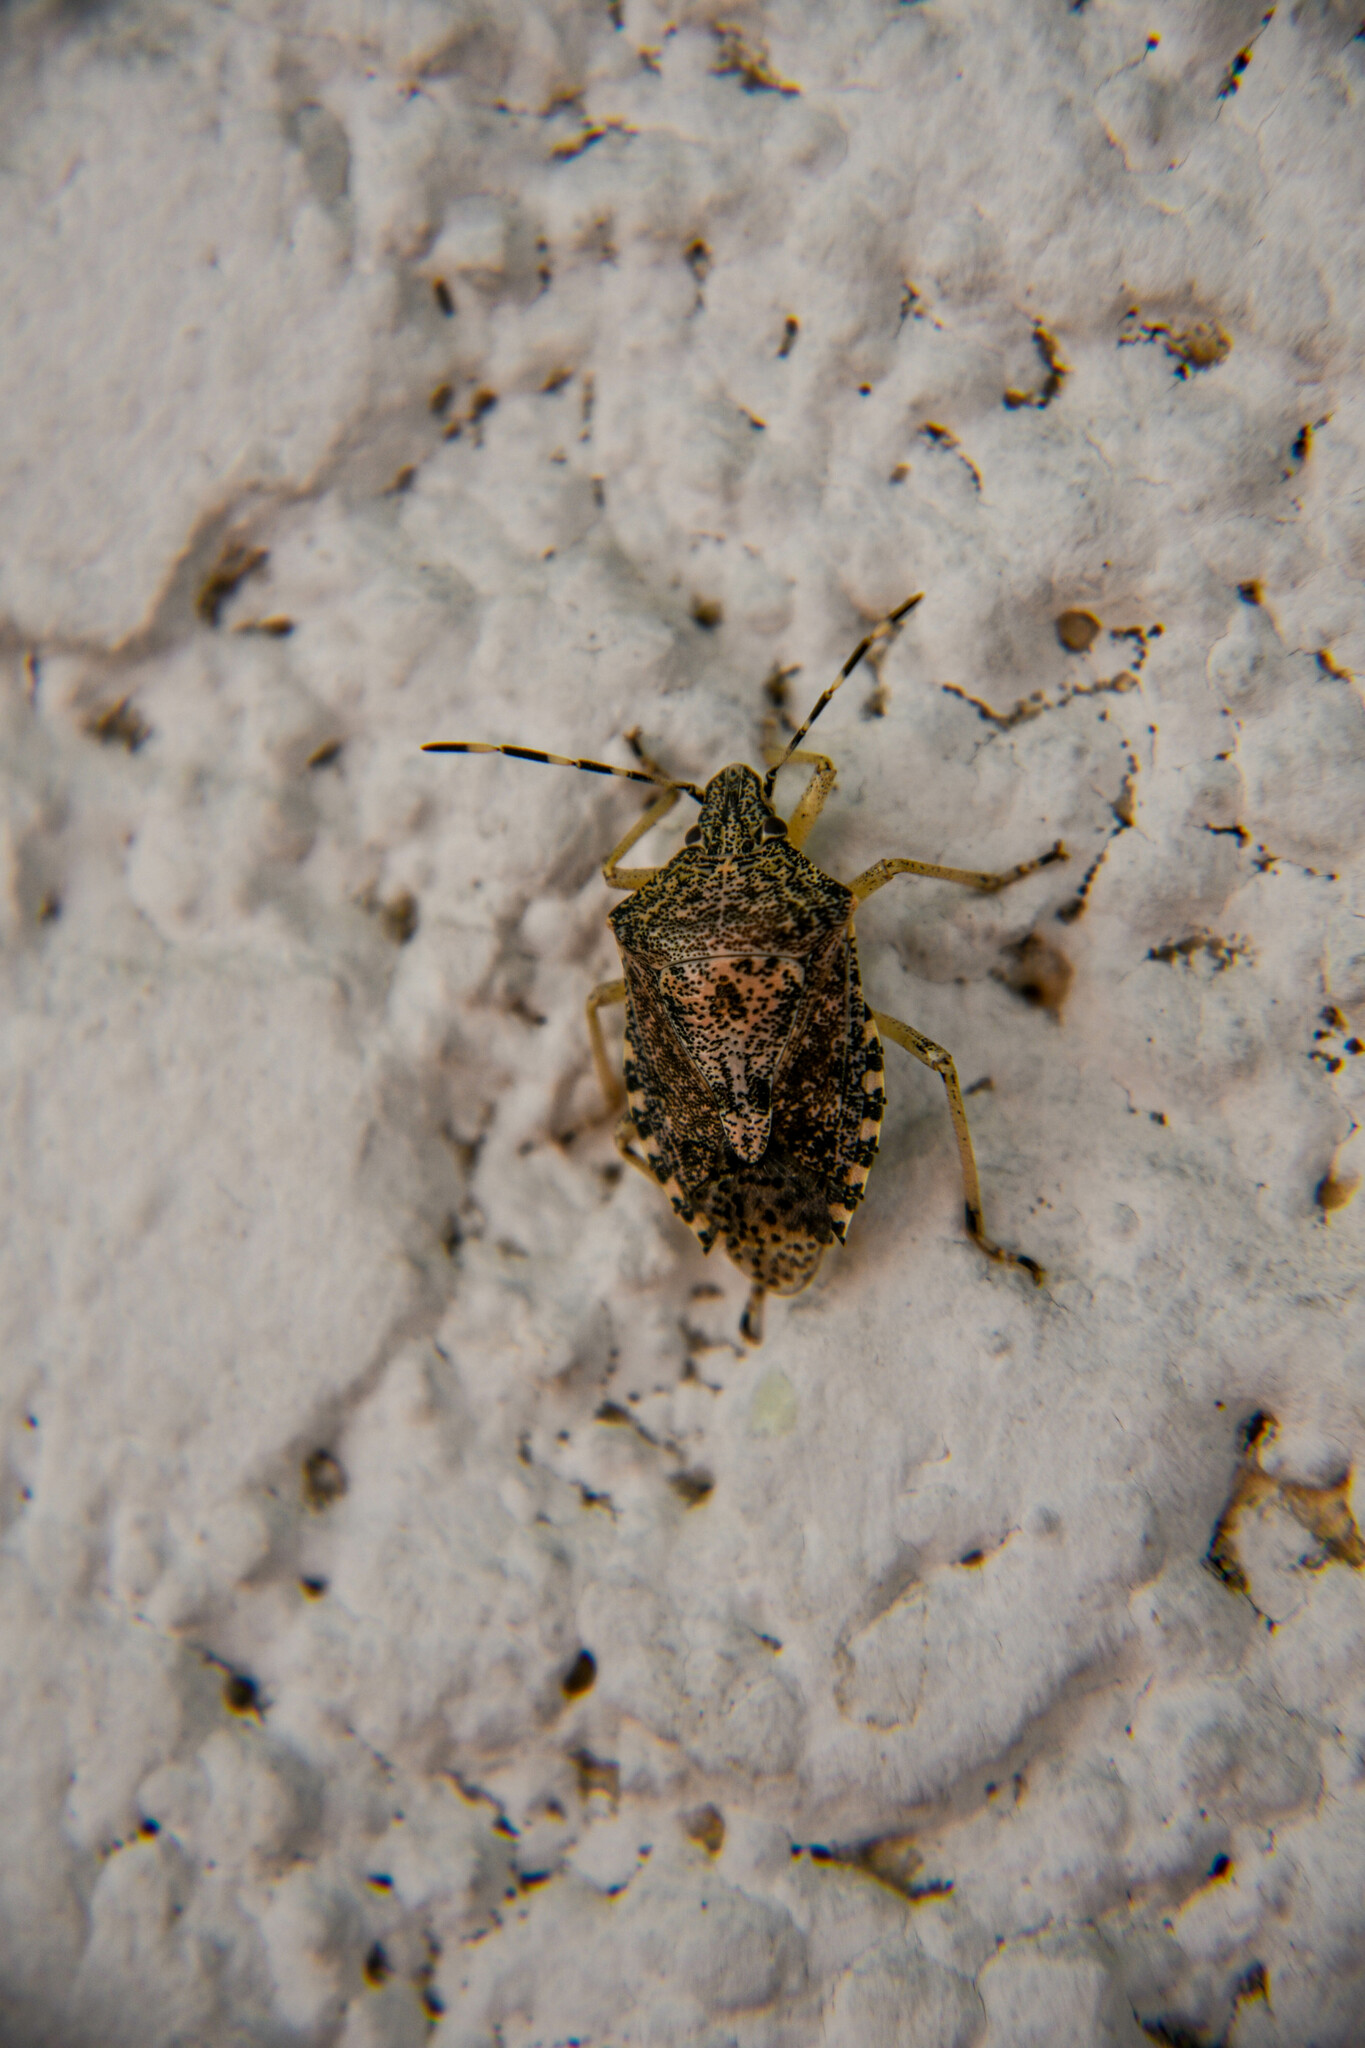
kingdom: Animalia
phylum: Arthropoda
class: Insecta
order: Hemiptera
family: Pentatomidae
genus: Rhaphigaster
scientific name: Rhaphigaster nebulosa
